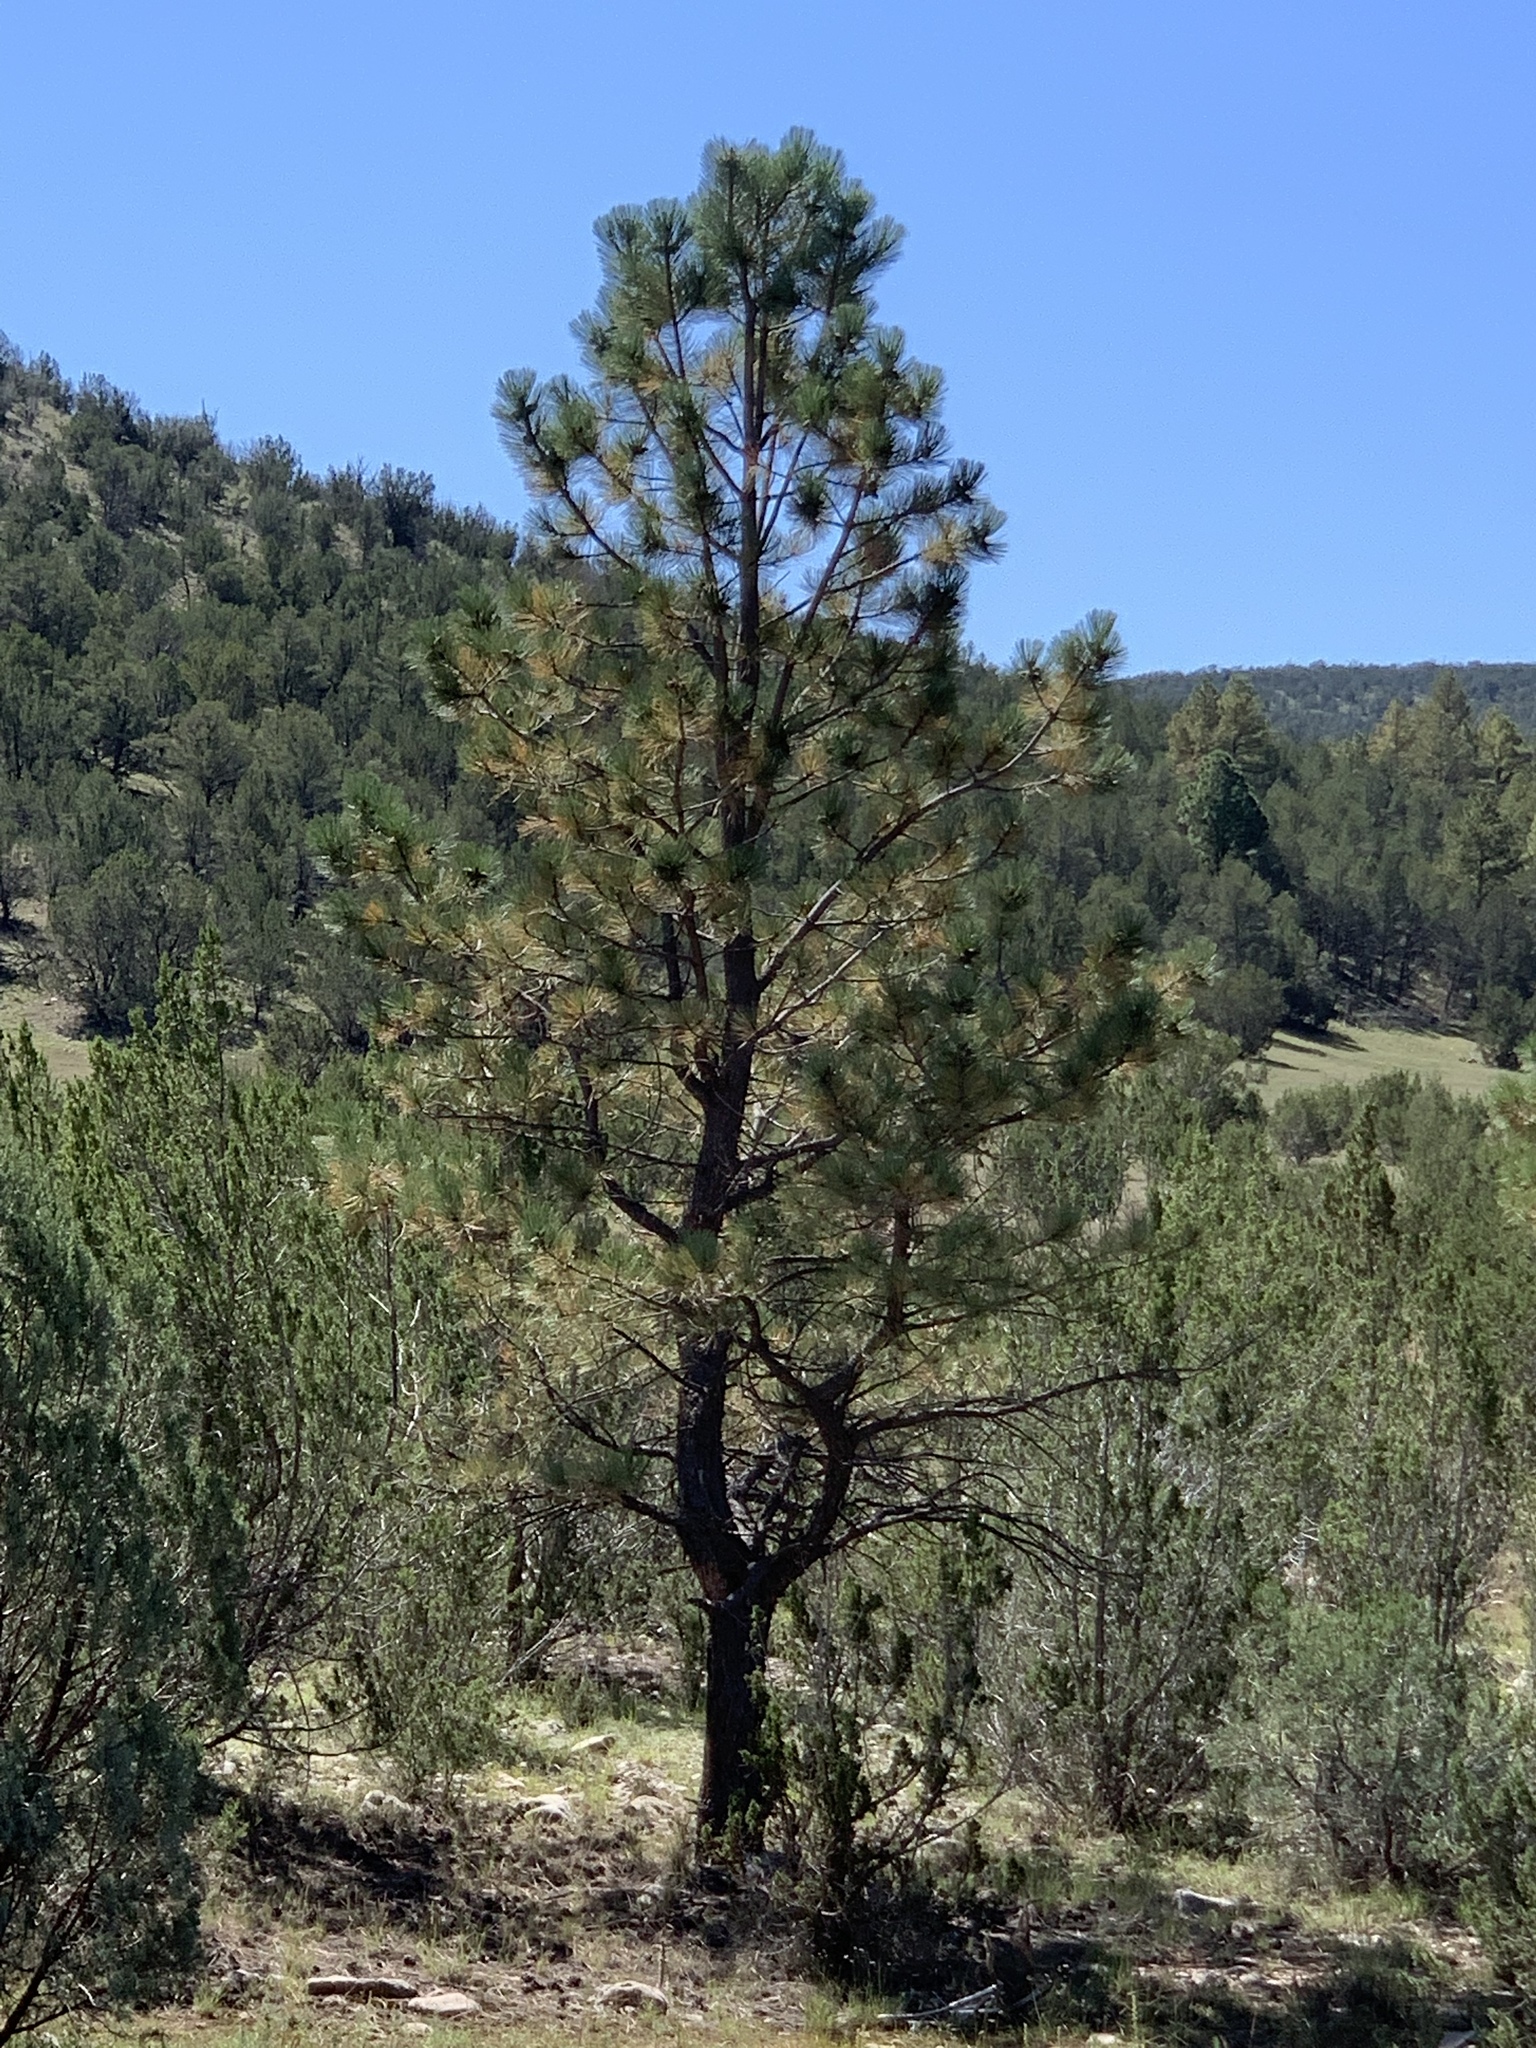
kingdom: Plantae
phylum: Tracheophyta
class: Pinopsida
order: Pinales
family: Pinaceae
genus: Pinus
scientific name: Pinus ponderosa
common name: Western yellow-pine
